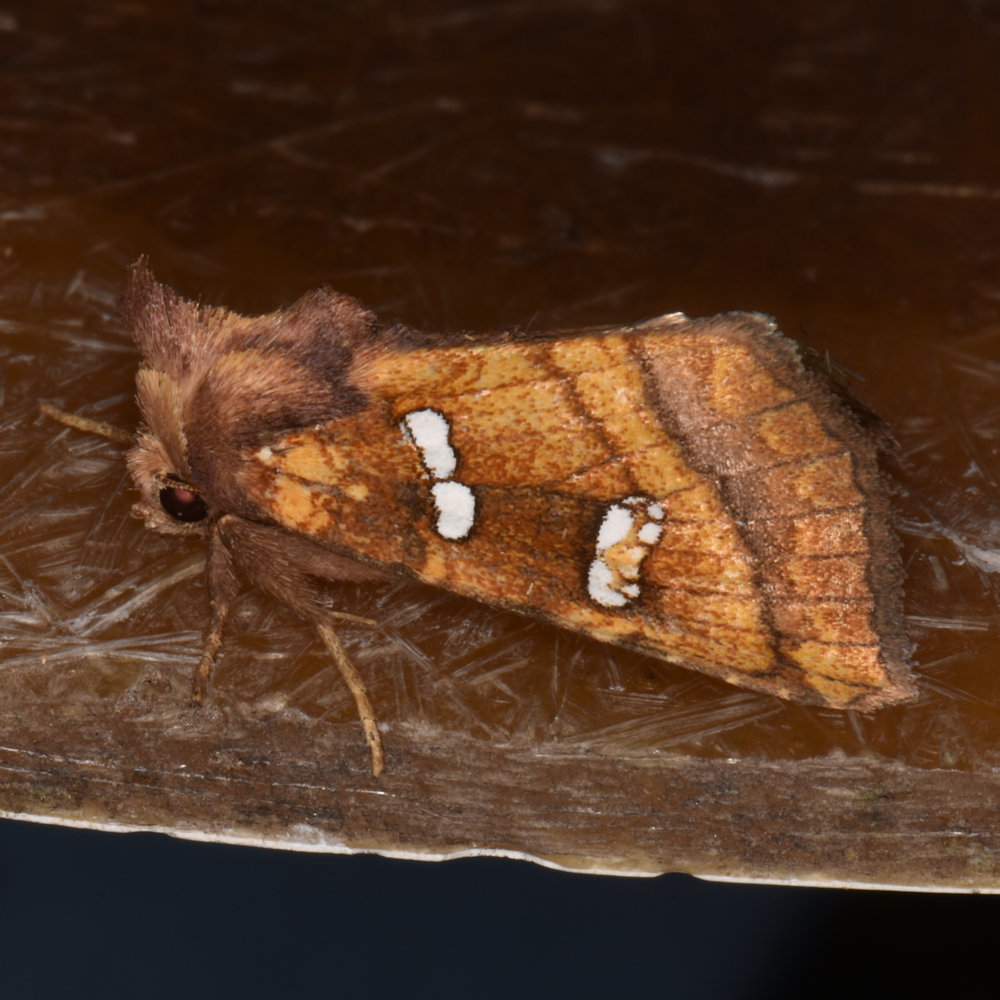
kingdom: Animalia
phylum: Arthropoda
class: Insecta
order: Lepidoptera
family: Noctuidae
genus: Papaipema
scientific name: Papaipema pterisii
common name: Bracken borer moth
